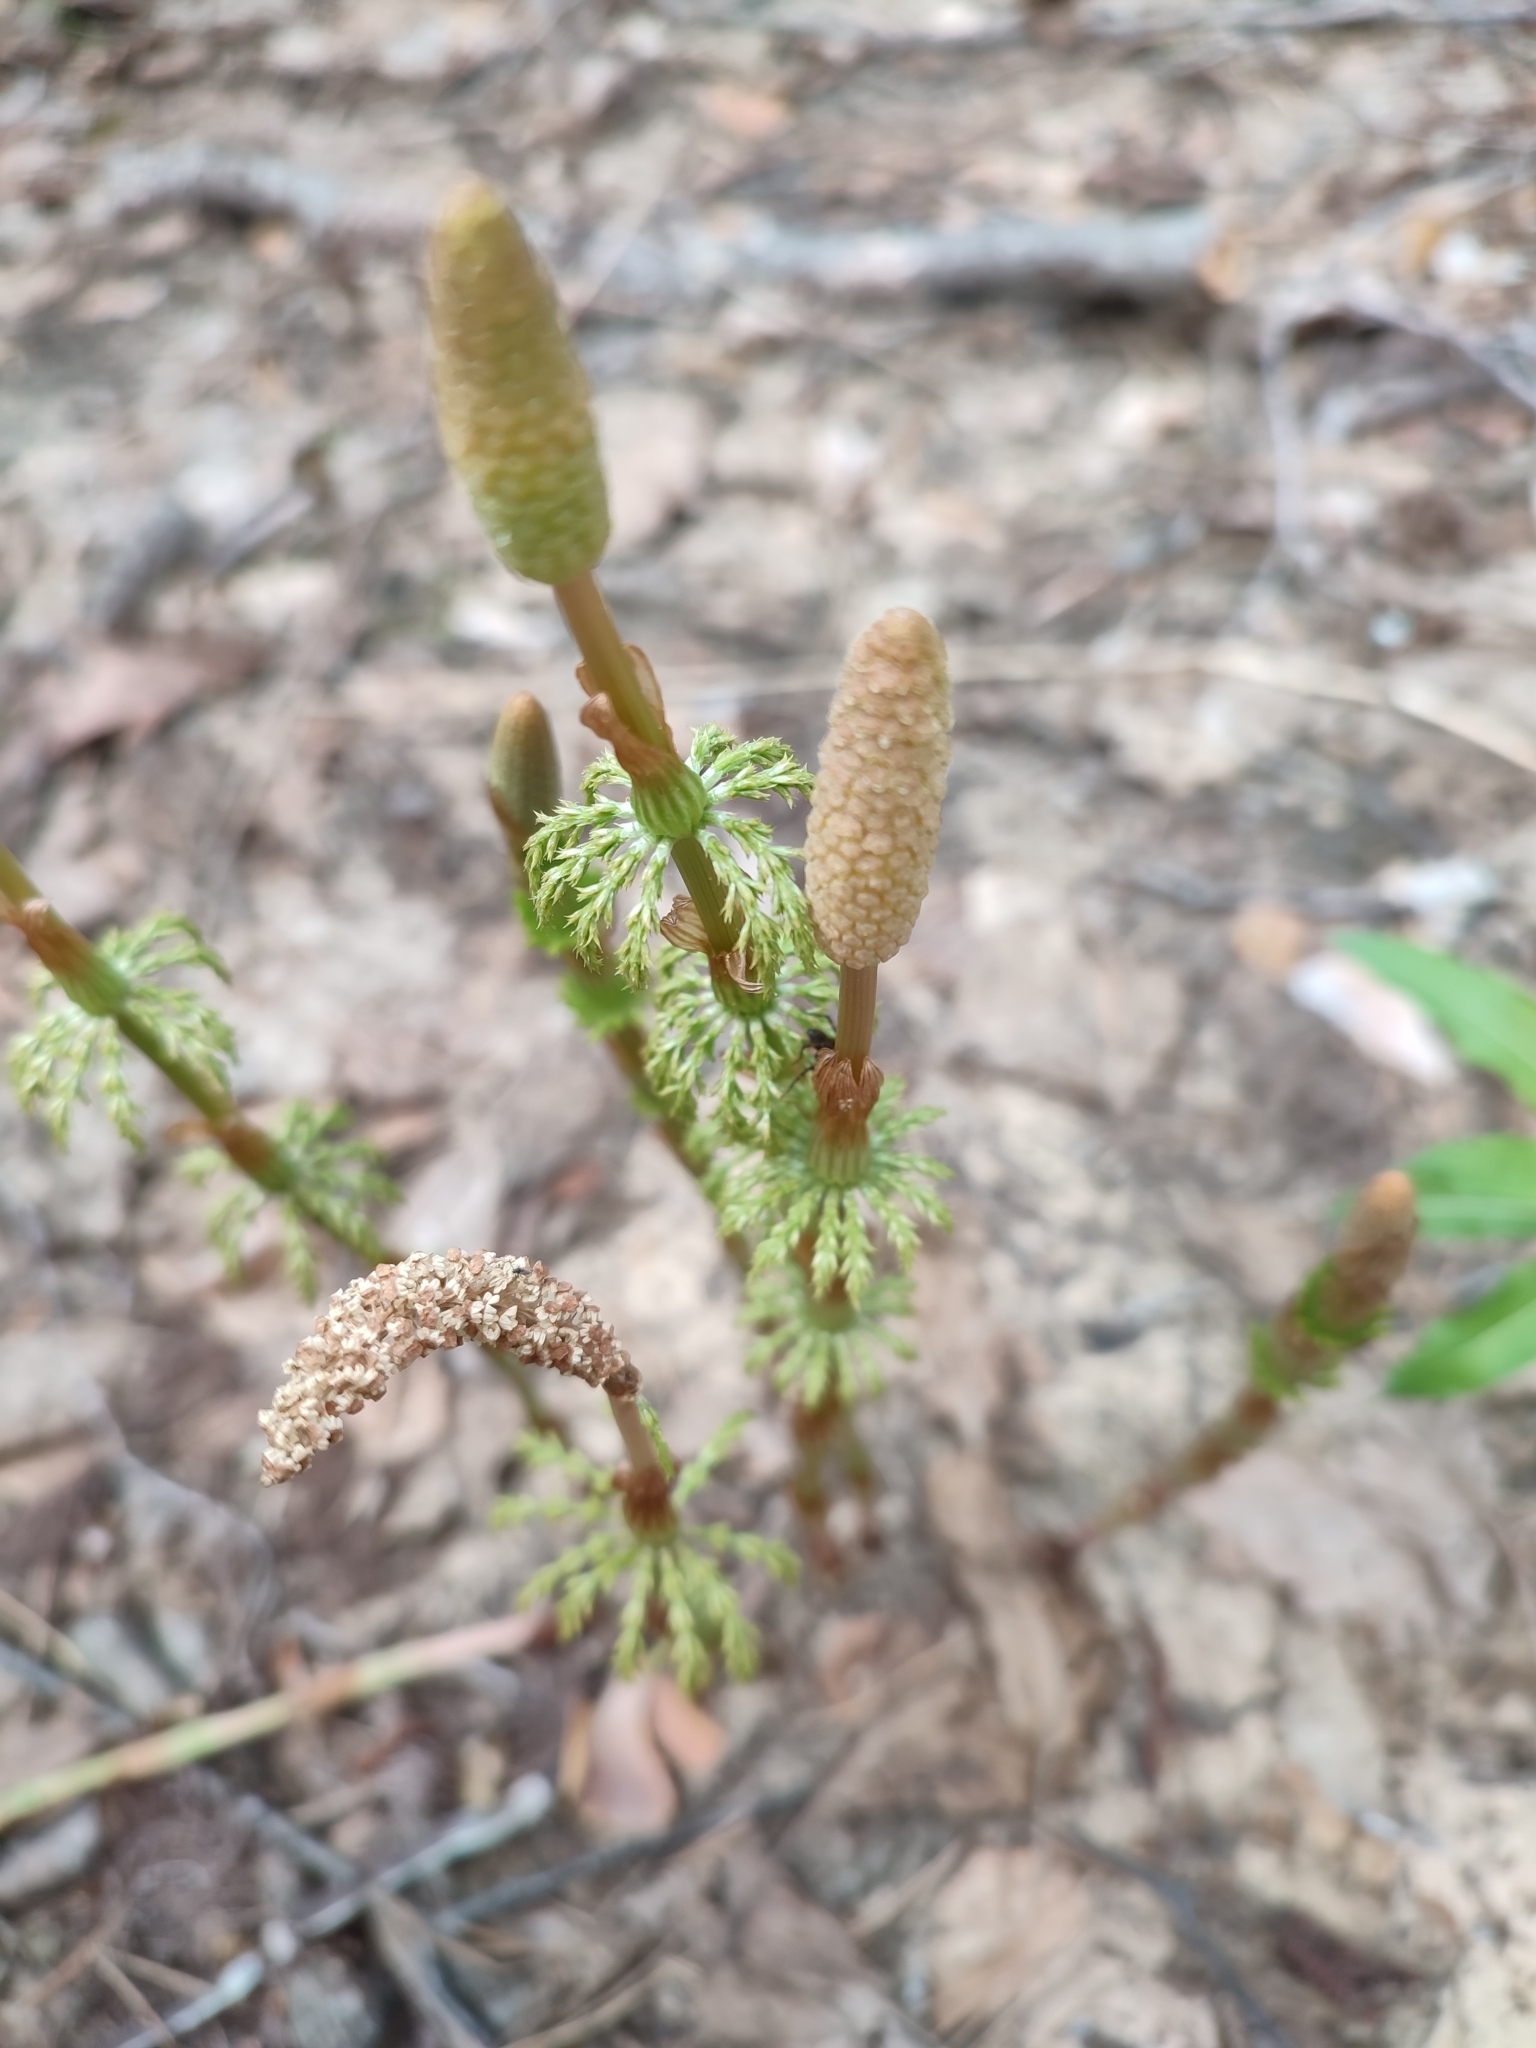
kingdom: Plantae
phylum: Tracheophyta
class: Polypodiopsida
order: Equisetales
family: Equisetaceae
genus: Equisetum
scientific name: Equisetum sylvaticum
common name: Wood horsetail
